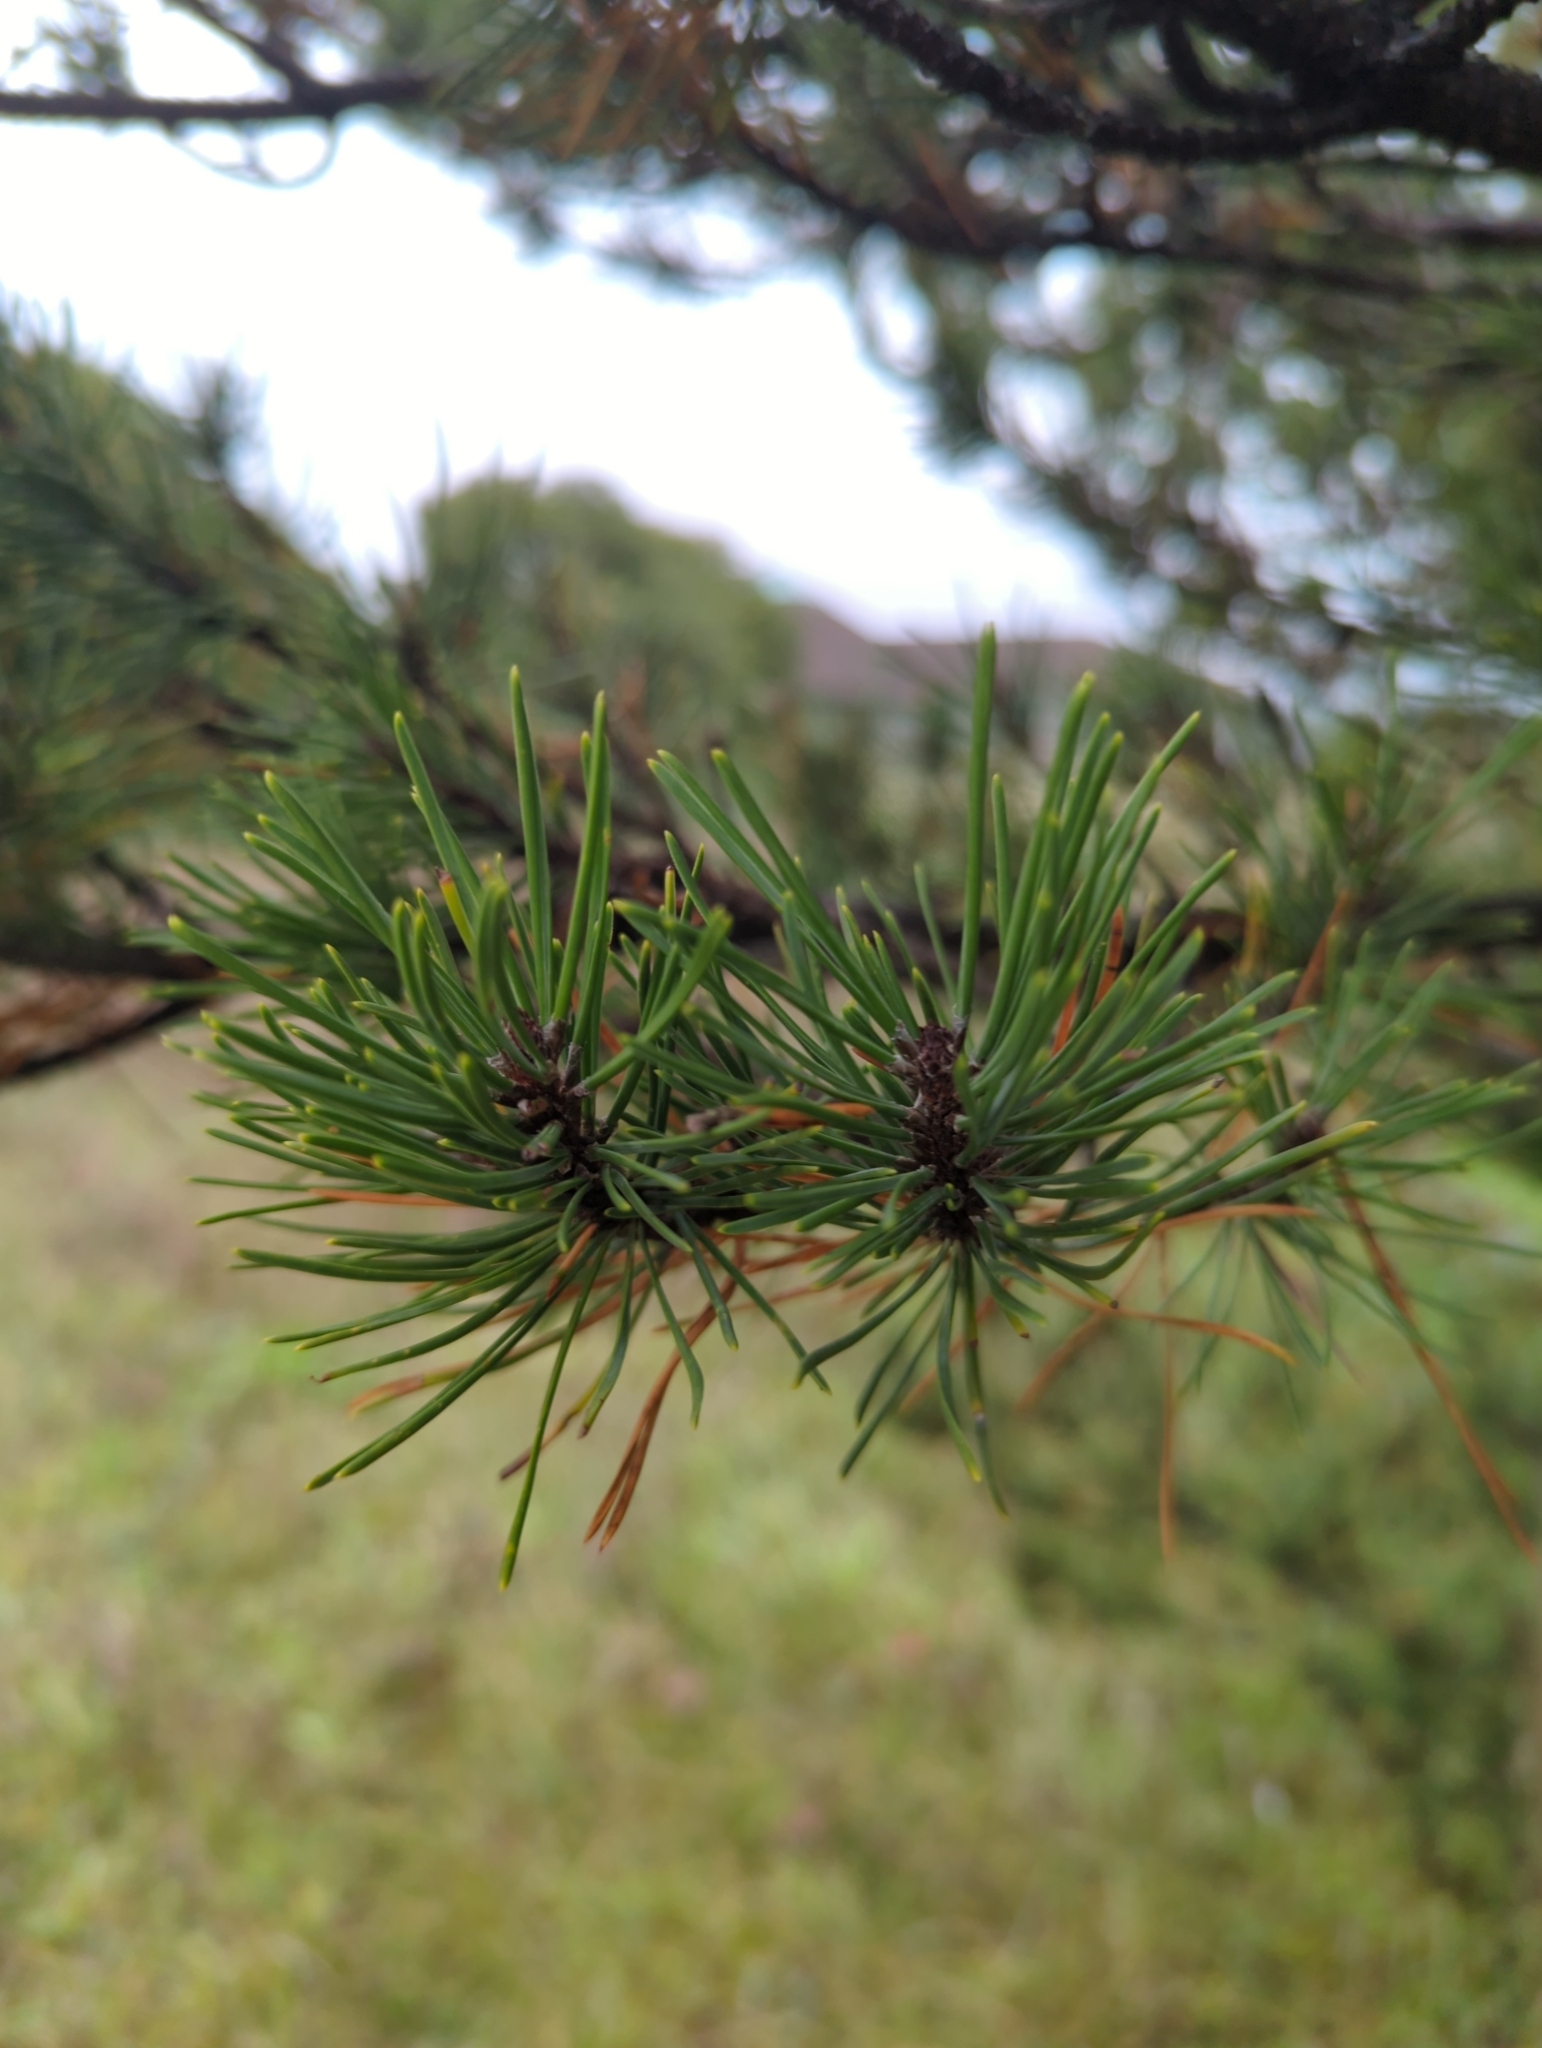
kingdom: Plantae
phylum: Tracheophyta
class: Pinopsida
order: Pinales
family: Pinaceae
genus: Pinus
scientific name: Pinus contorta
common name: Lodgepole pine
